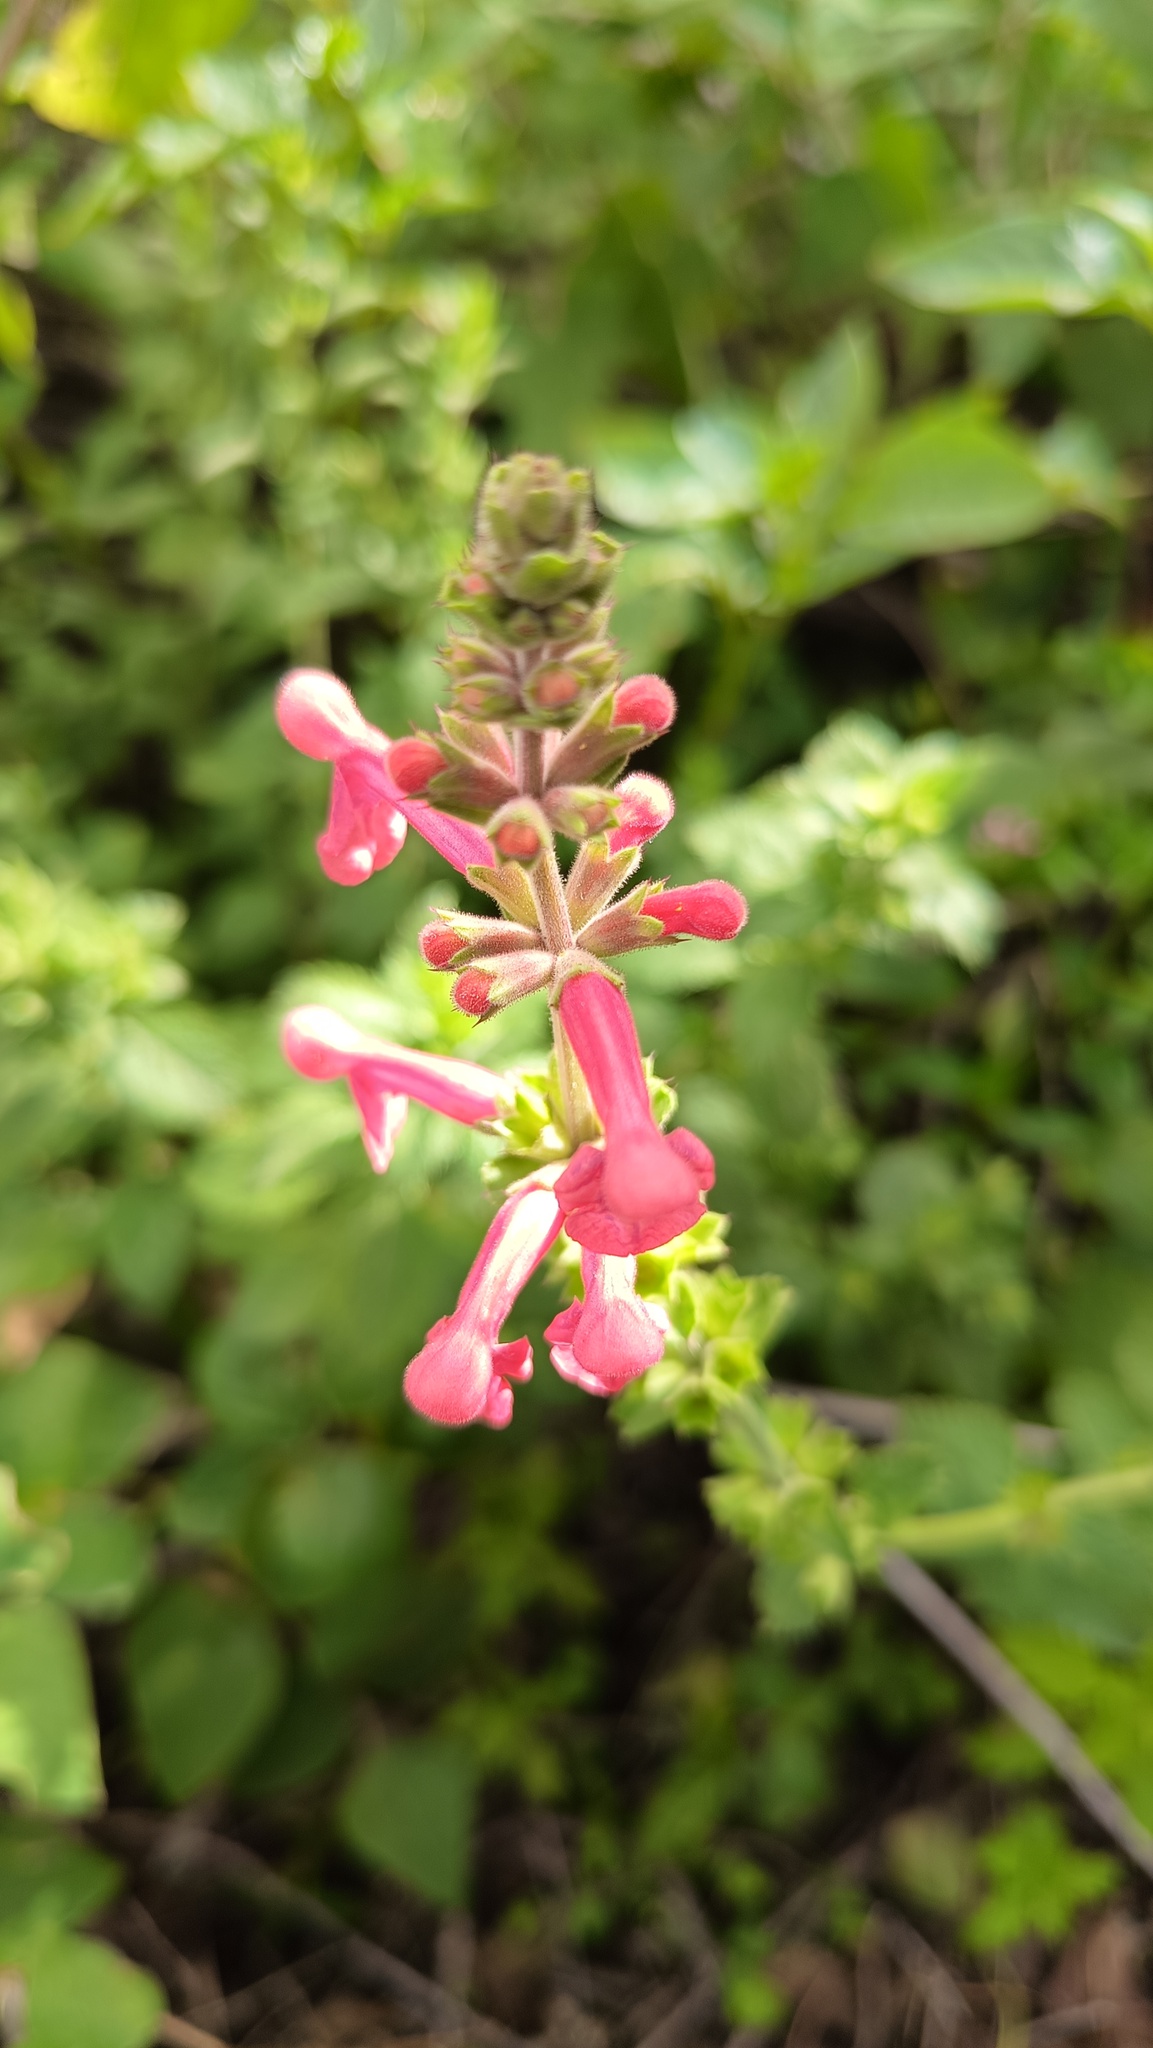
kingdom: Plantae
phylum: Tracheophyta
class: Magnoliopsida
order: Lamiales
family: Lamiaceae
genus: Stachys
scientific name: Stachys coccinea
